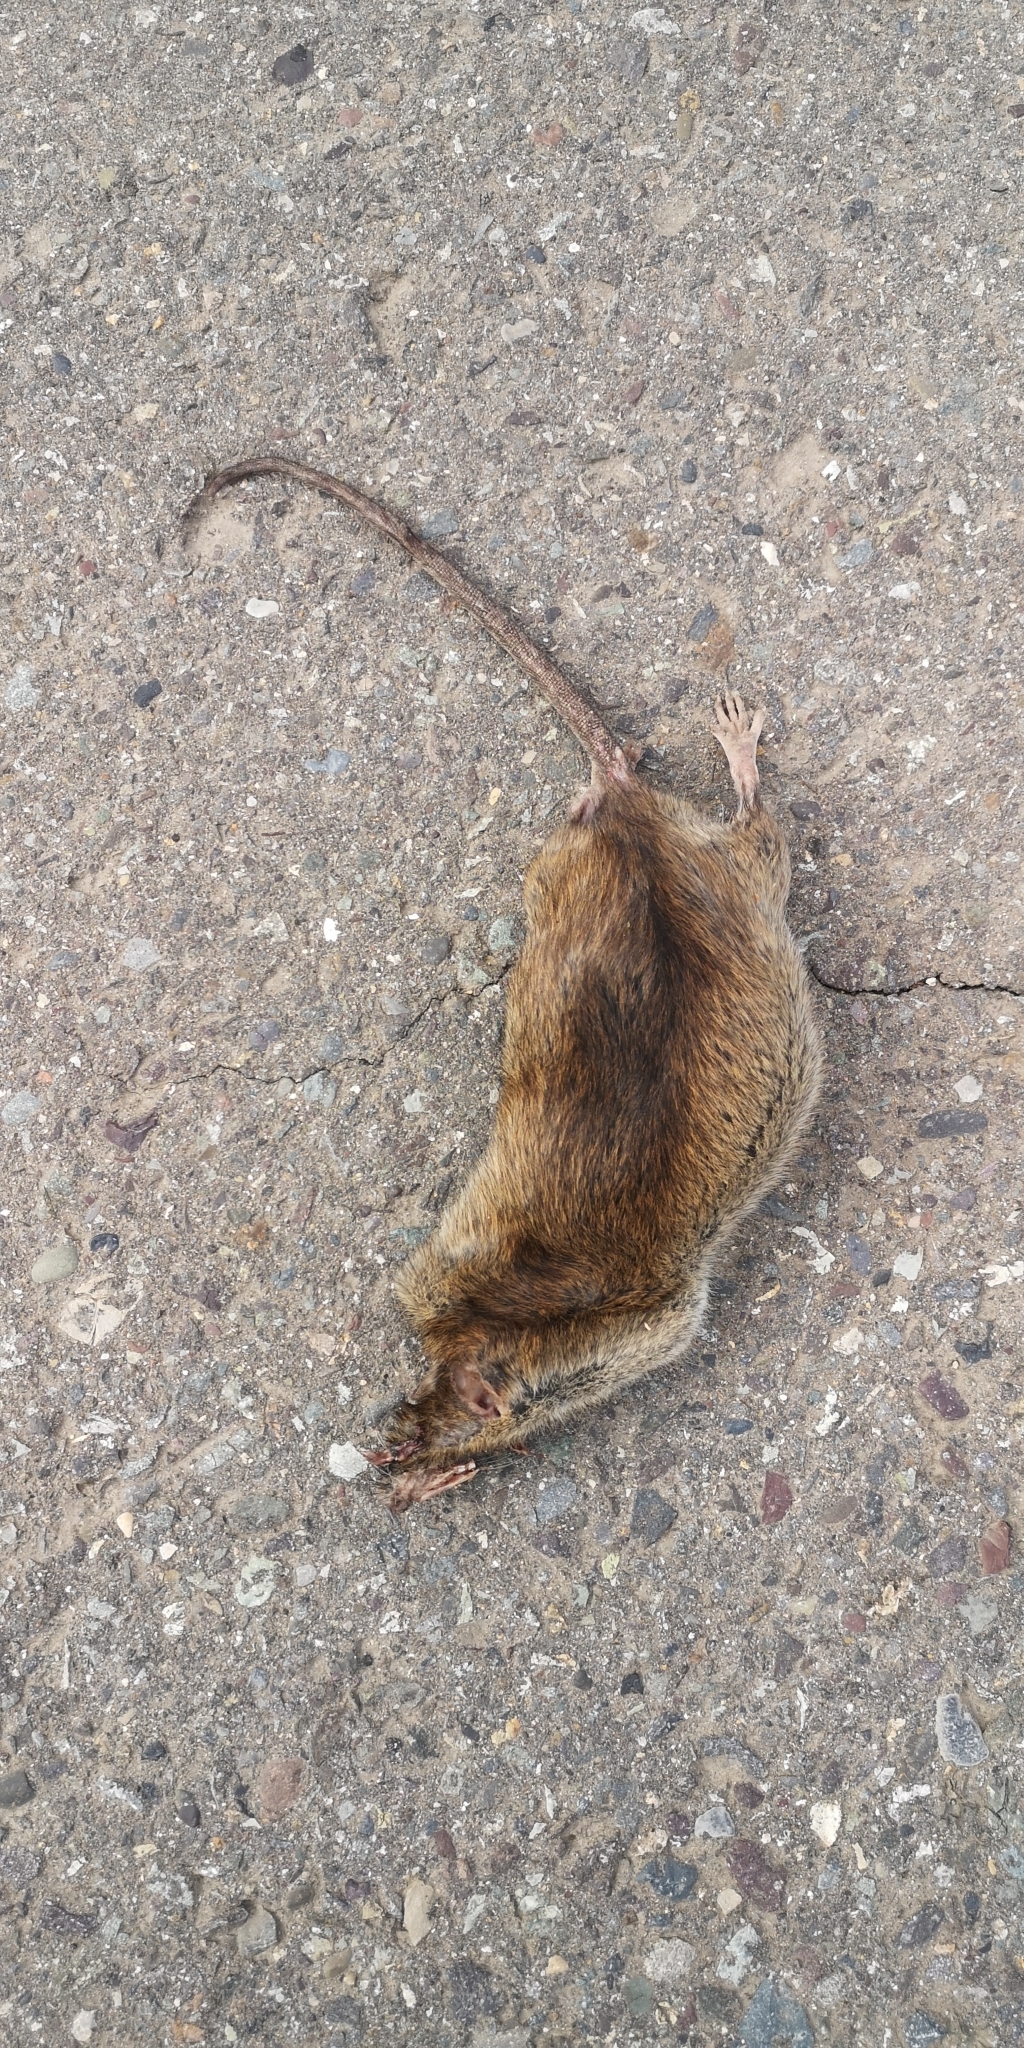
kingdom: Animalia
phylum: Chordata
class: Mammalia
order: Rodentia
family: Muridae
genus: Rattus
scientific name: Rattus norvegicus
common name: Brown rat
